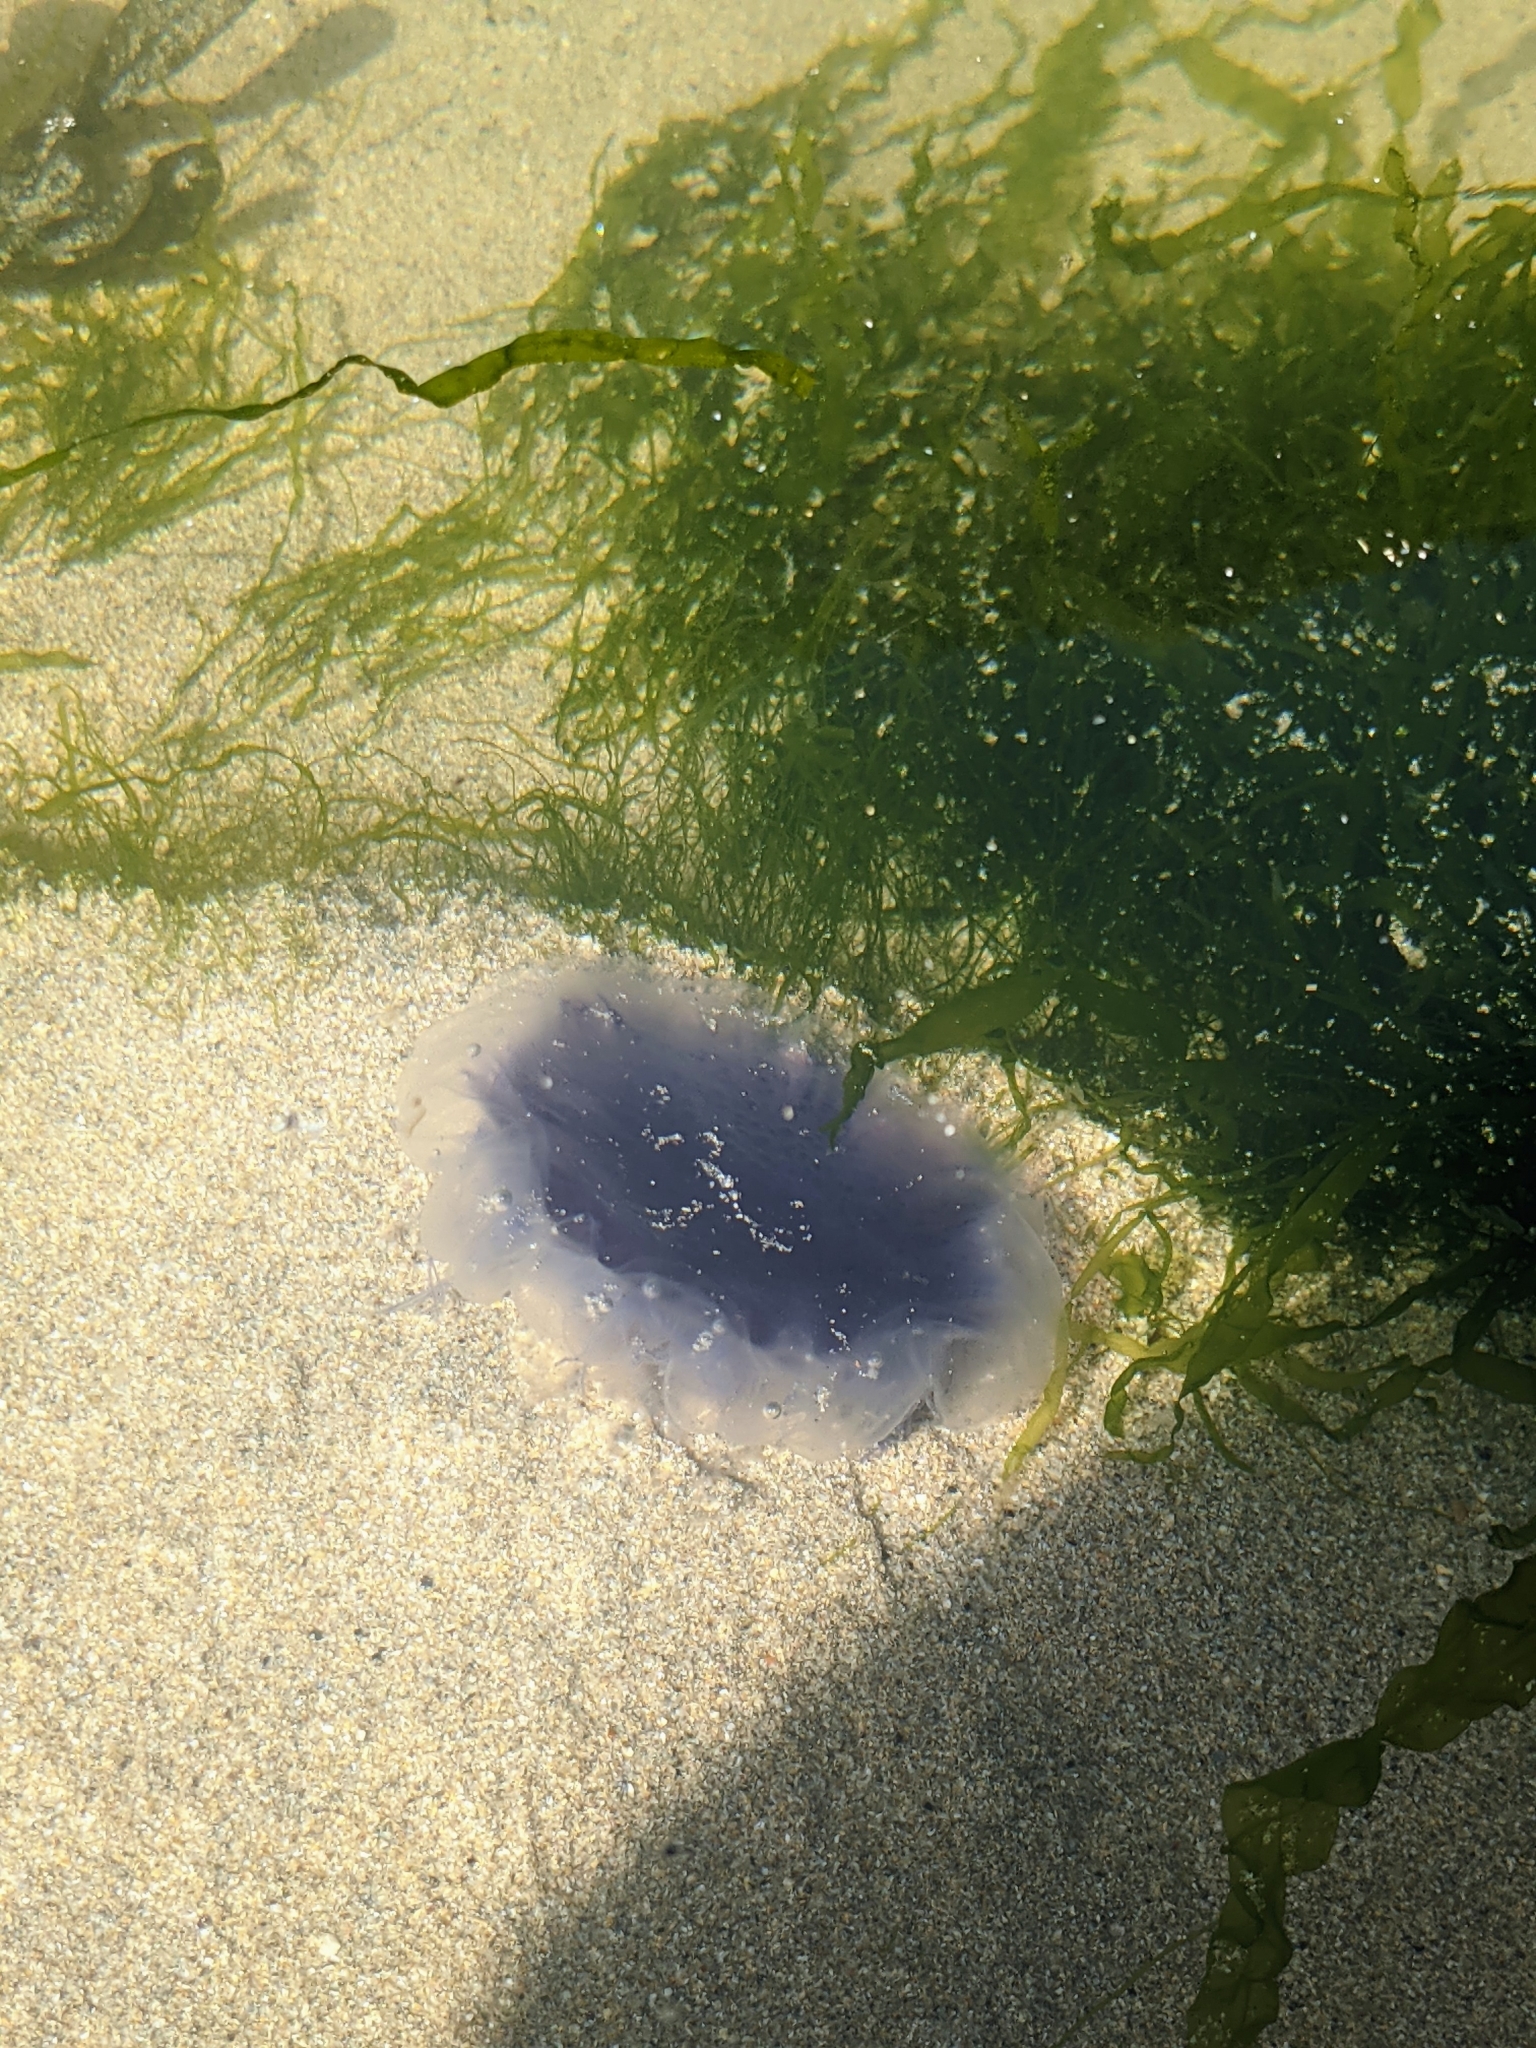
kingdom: Animalia
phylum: Cnidaria
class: Scyphozoa
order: Semaeostomeae
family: Cyaneidae
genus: Cyanea
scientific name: Cyanea lamarckii
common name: Blue jellyfish
